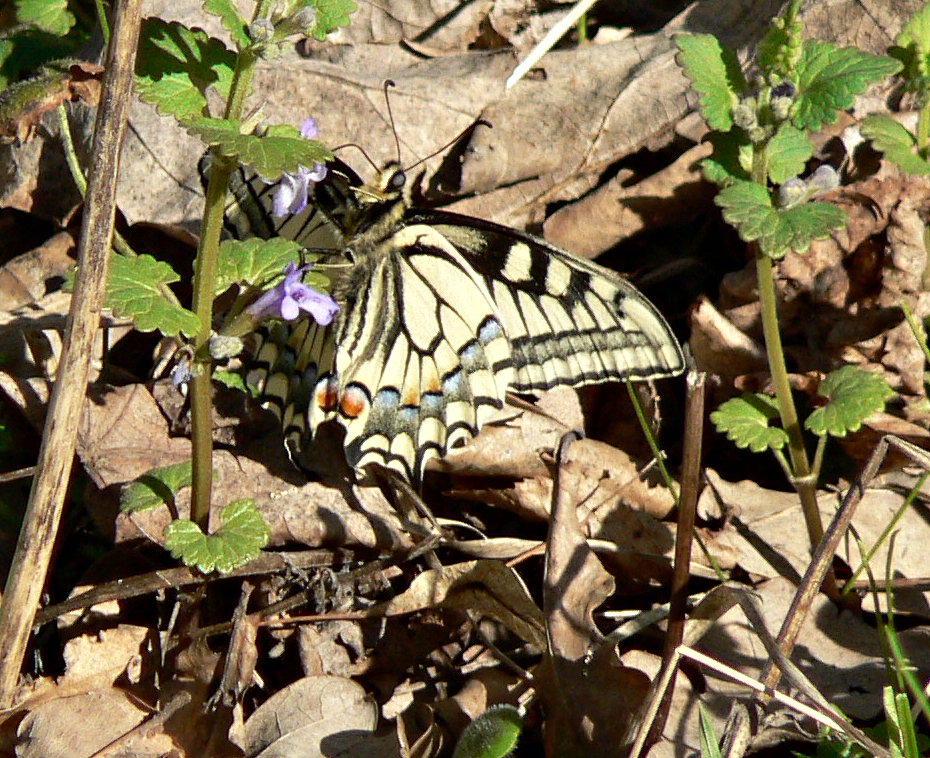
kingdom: Animalia
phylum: Arthropoda
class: Insecta
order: Lepidoptera
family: Papilionidae
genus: Papilio
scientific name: Papilio machaon
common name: Swallowtail
